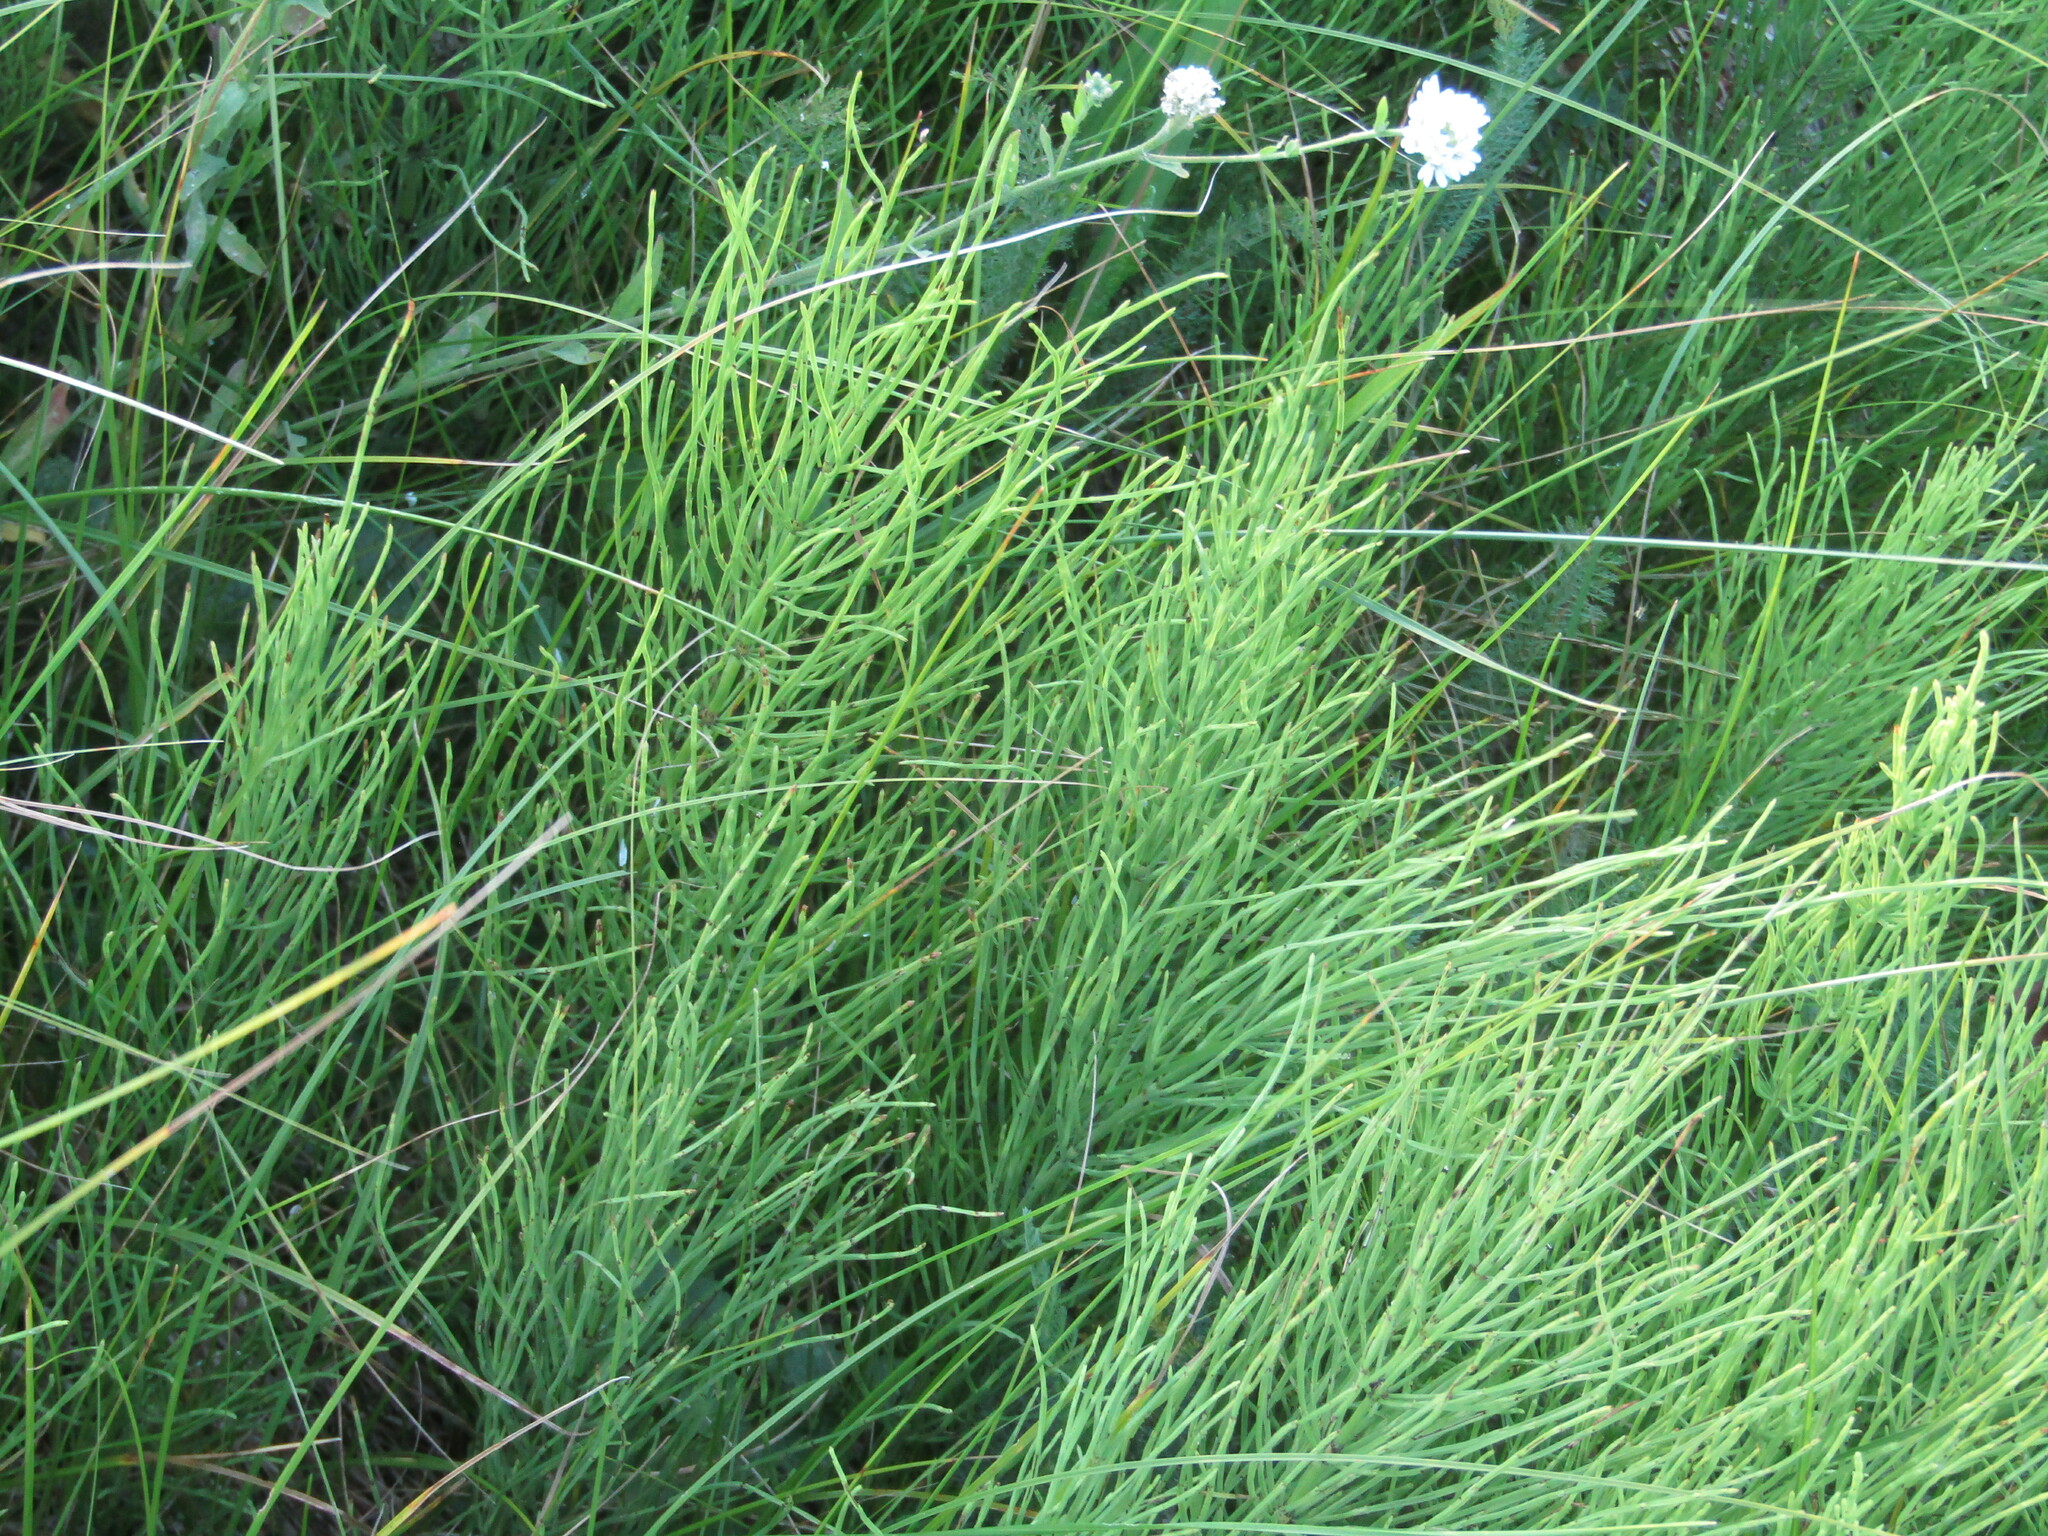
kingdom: Plantae
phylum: Tracheophyta
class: Polypodiopsida
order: Equisetales
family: Equisetaceae
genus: Equisetum
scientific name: Equisetum arvense
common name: Field horsetail
